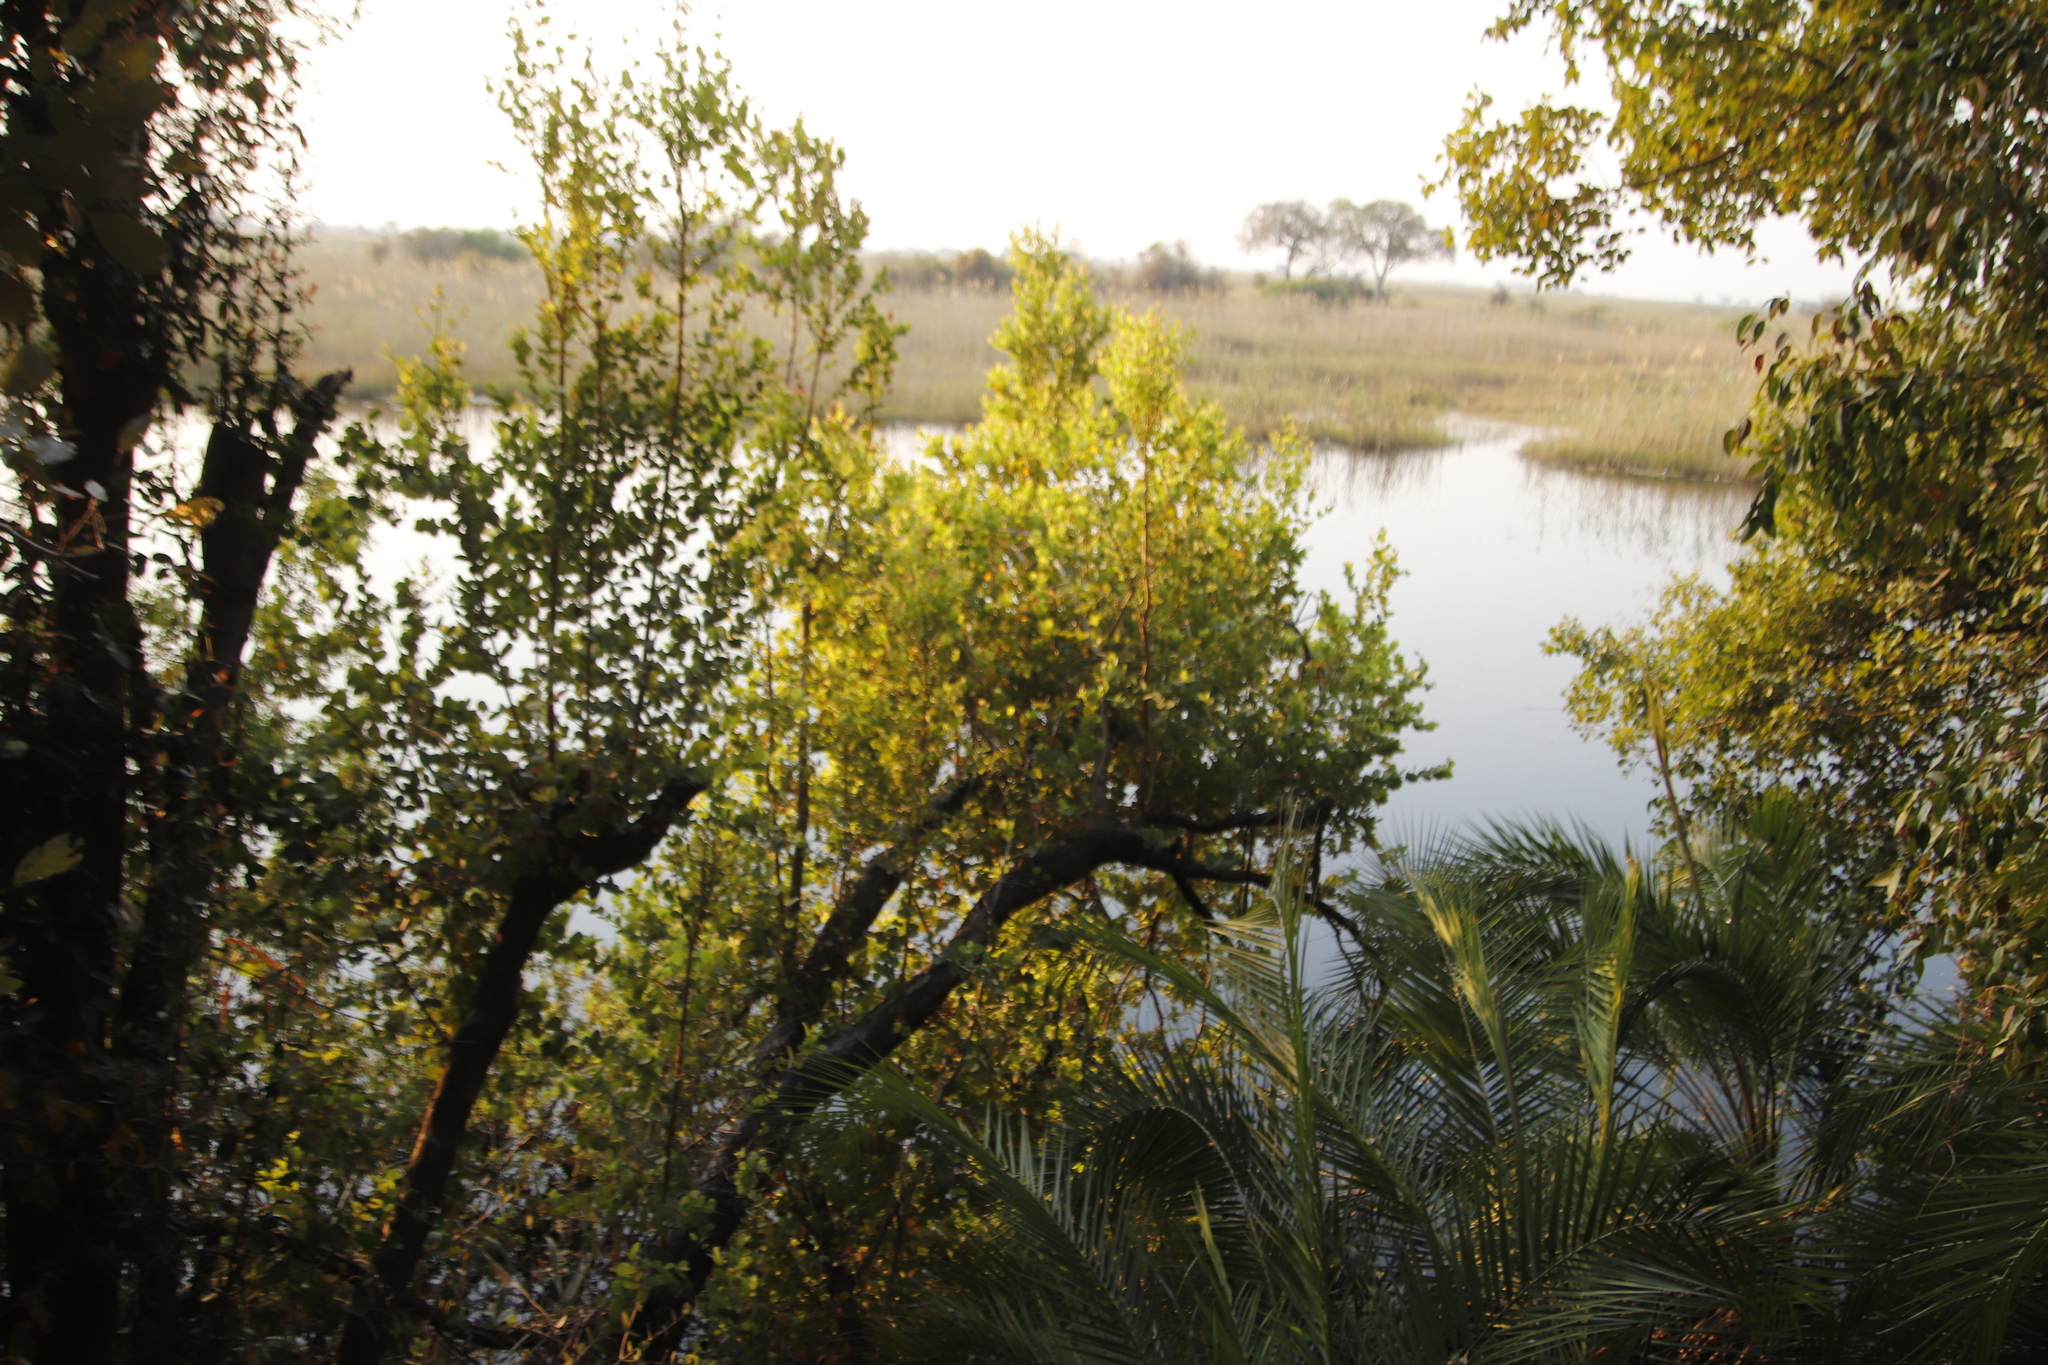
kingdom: Plantae
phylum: Tracheophyta
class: Magnoliopsida
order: Myrtales
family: Myrtaceae
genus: Syzygium
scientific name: Syzygium cordatum
